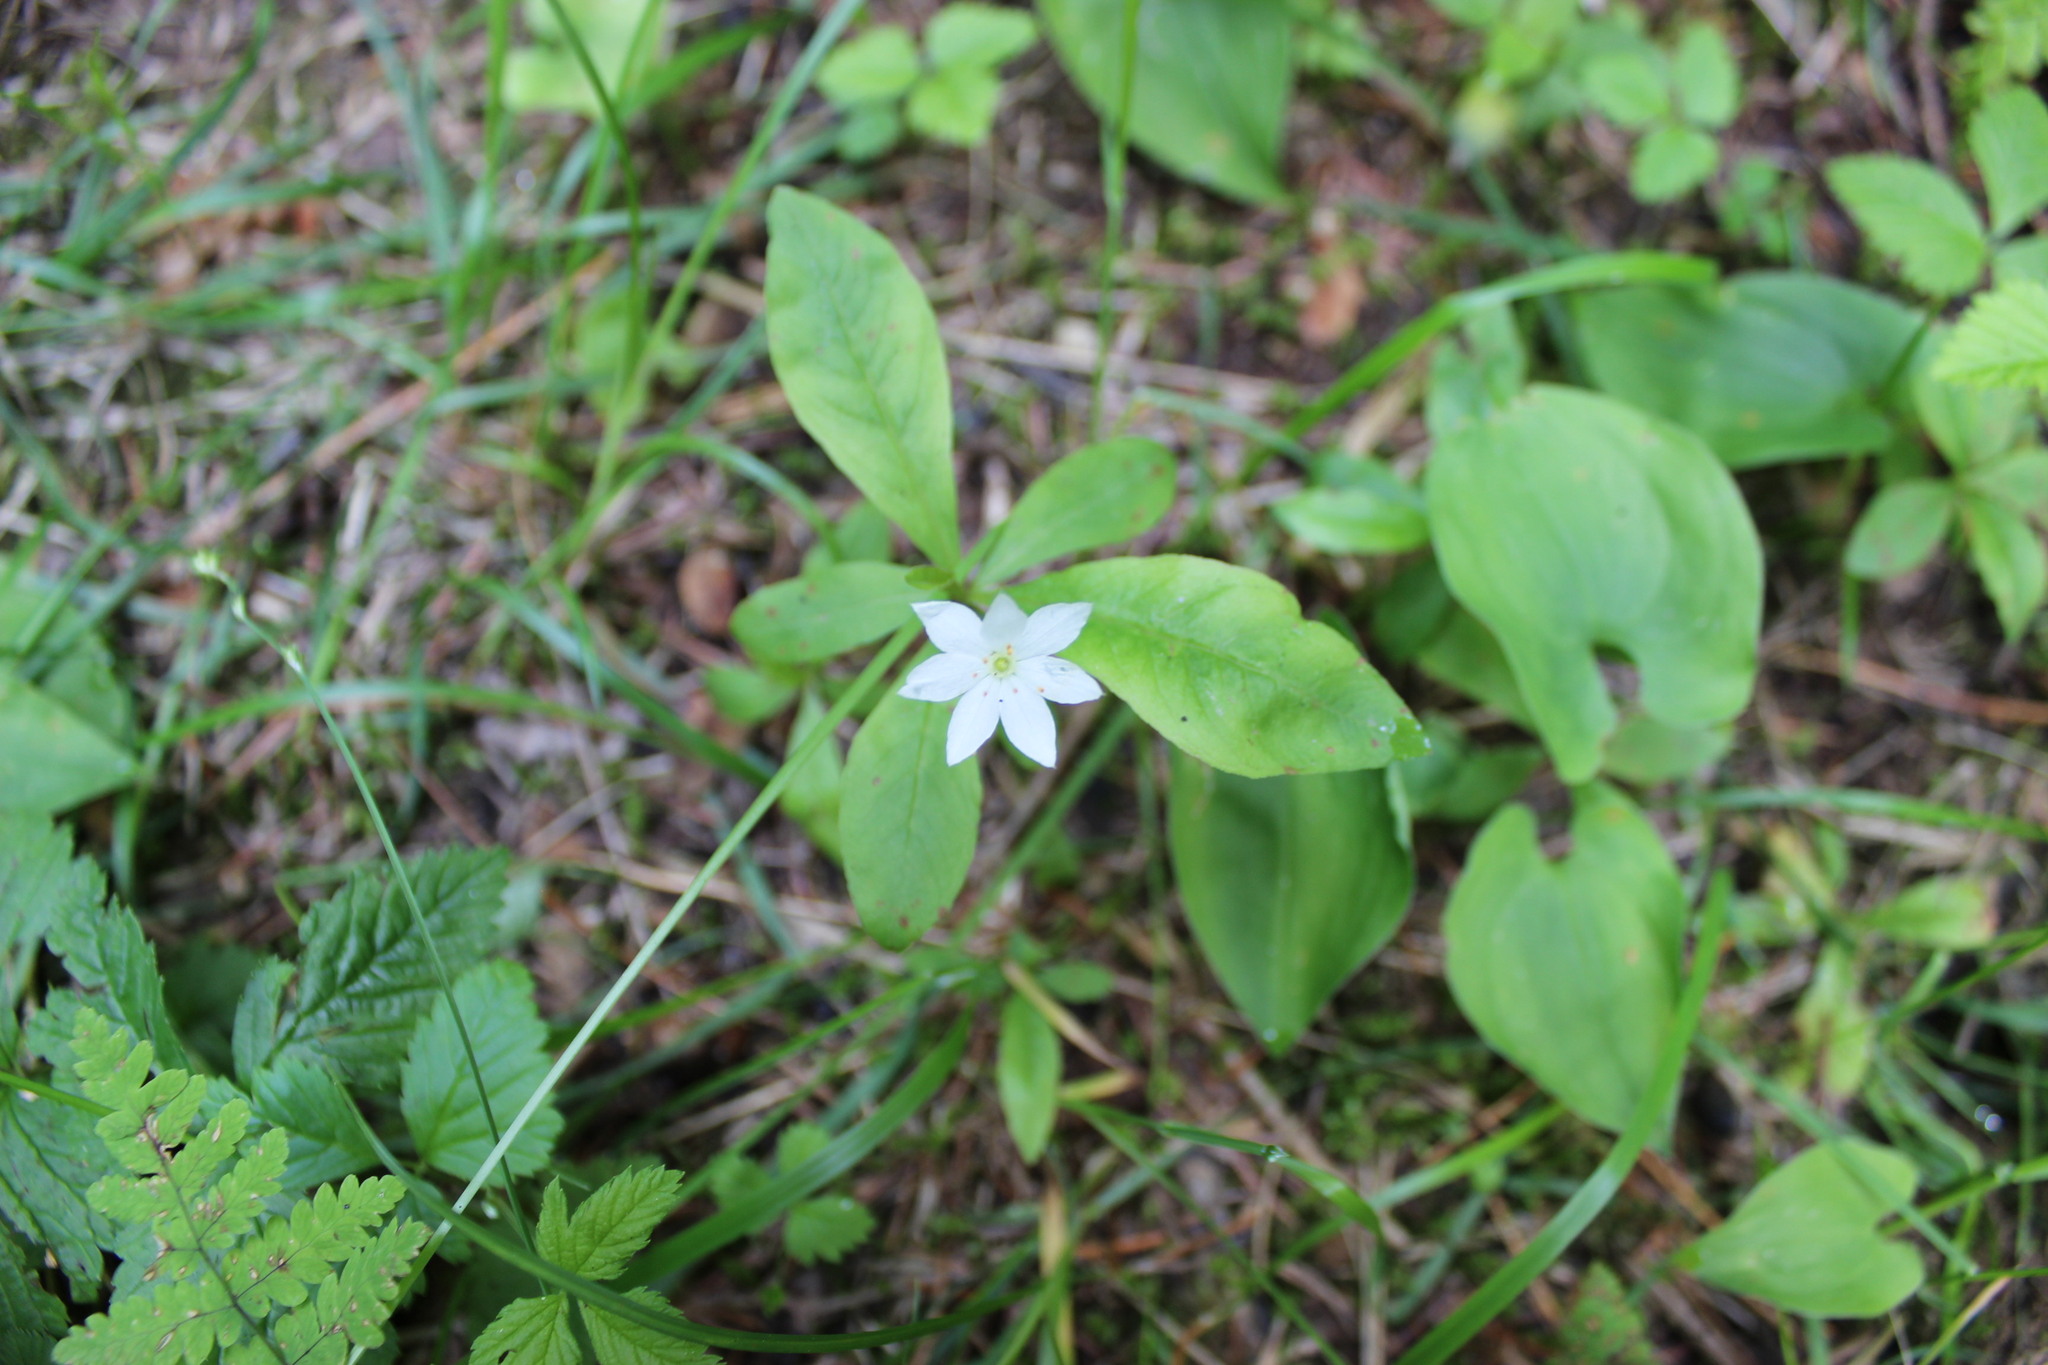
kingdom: Plantae
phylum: Tracheophyta
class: Magnoliopsida
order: Ericales
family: Primulaceae
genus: Lysimachia
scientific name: Lysimachia europaea
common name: Arctic starflower
